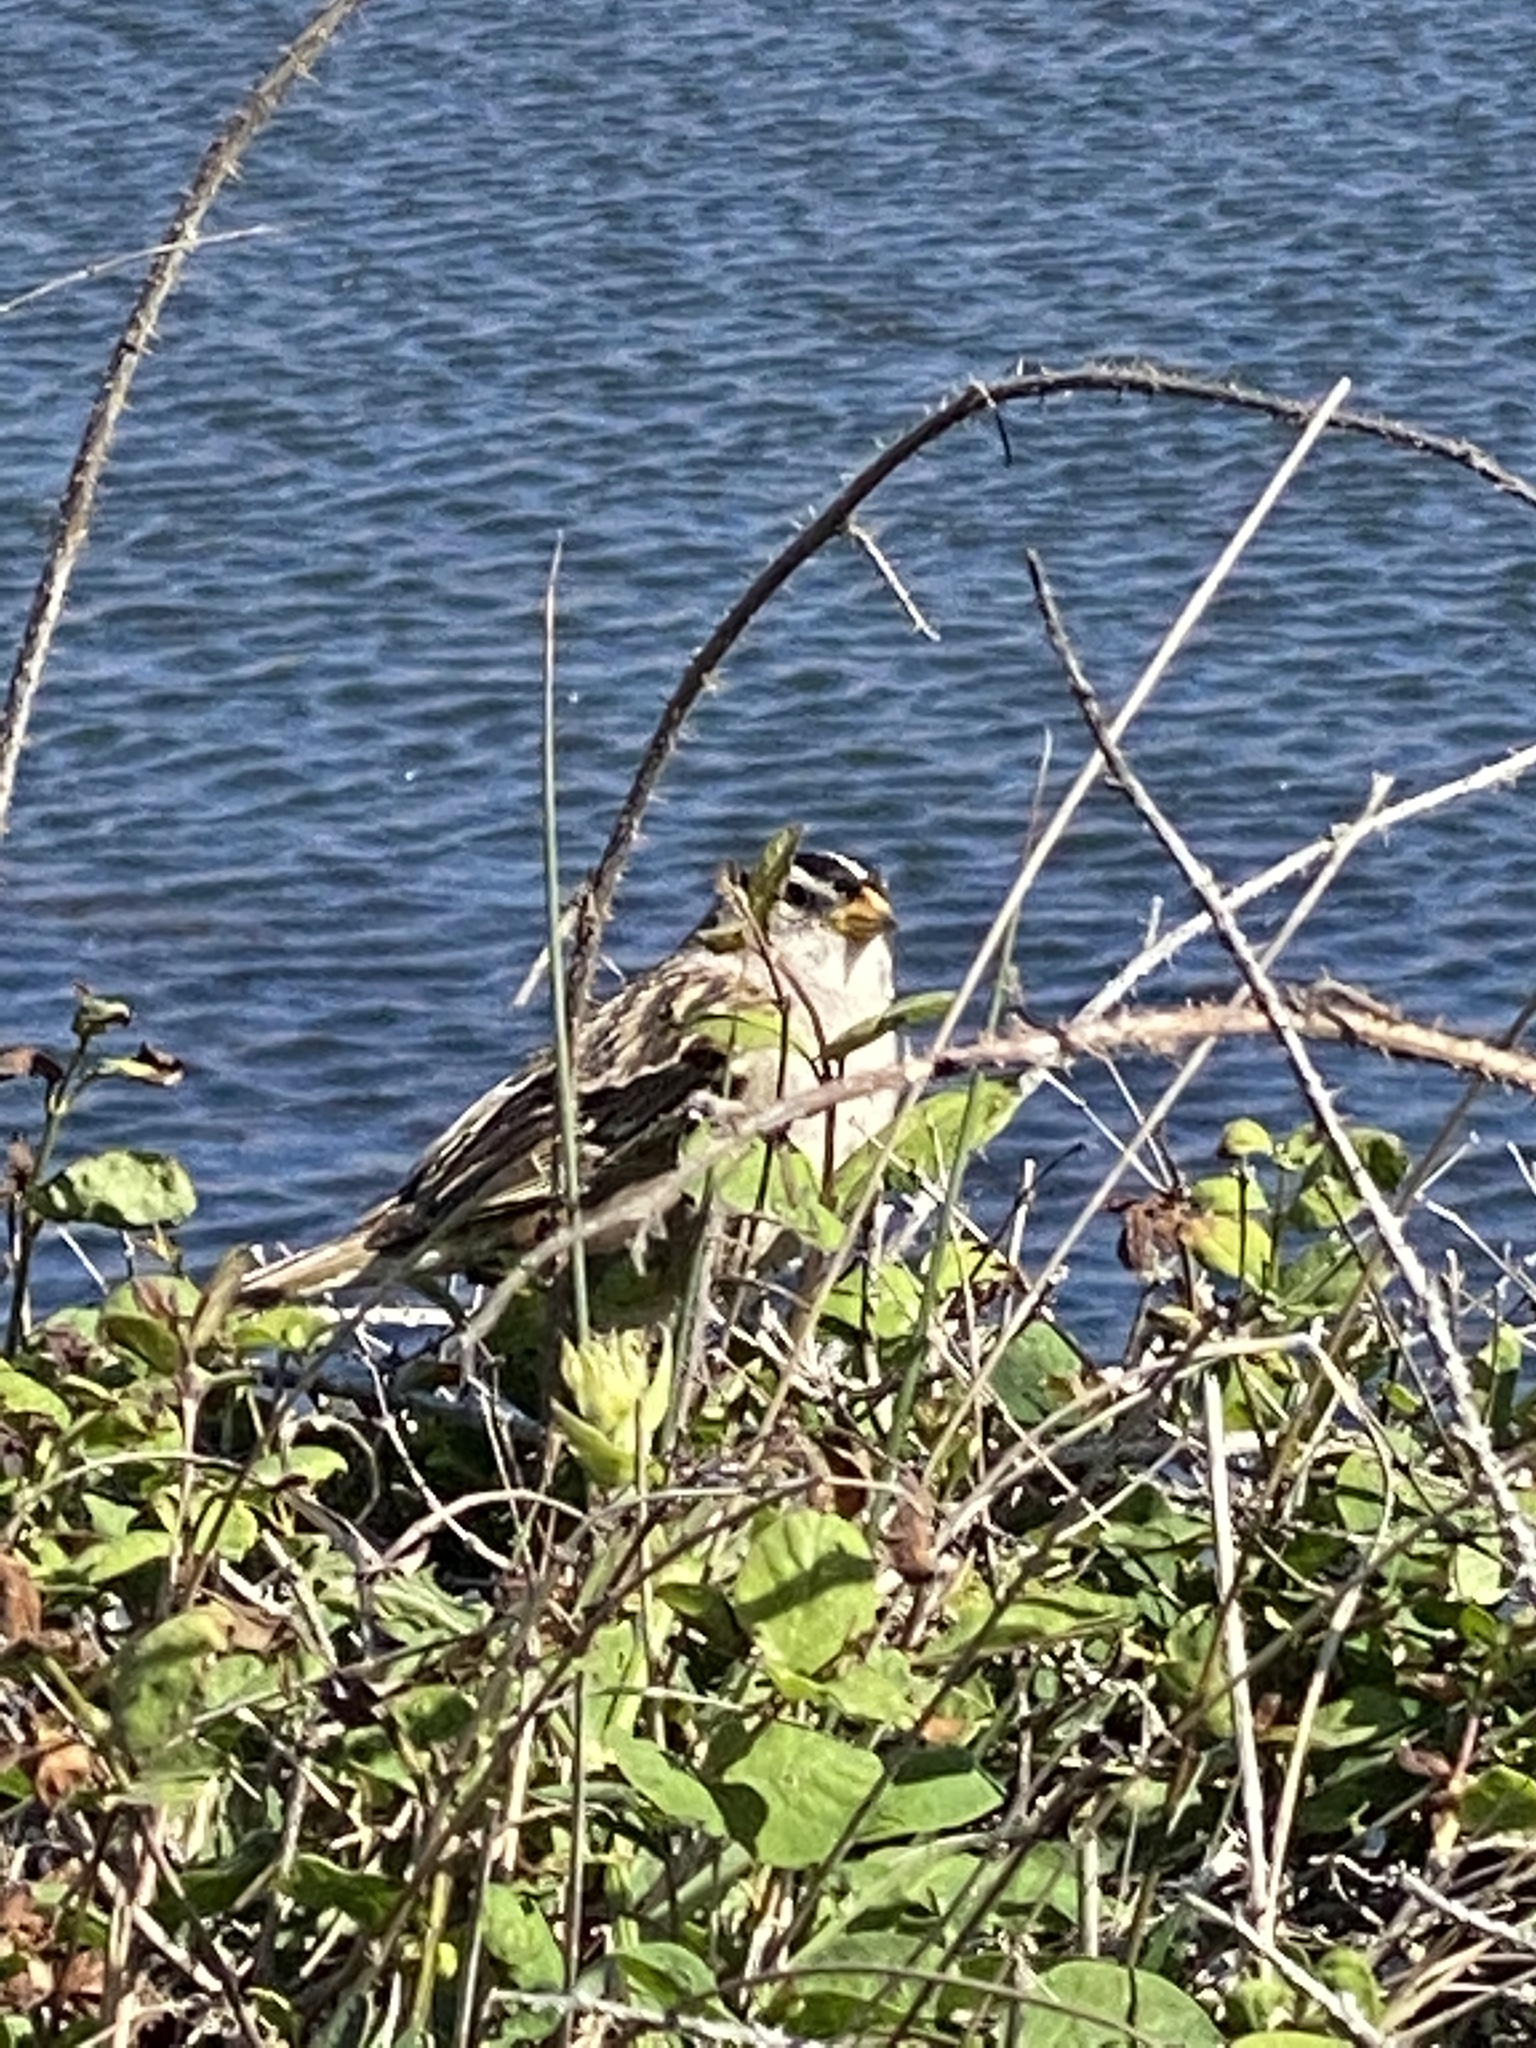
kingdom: Animalia
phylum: Chordata
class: Aves
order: Passeriformes
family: Passerellidae
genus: Zonotrichia
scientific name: Zonotrichia leucophrys
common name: White-crowned sparrow
